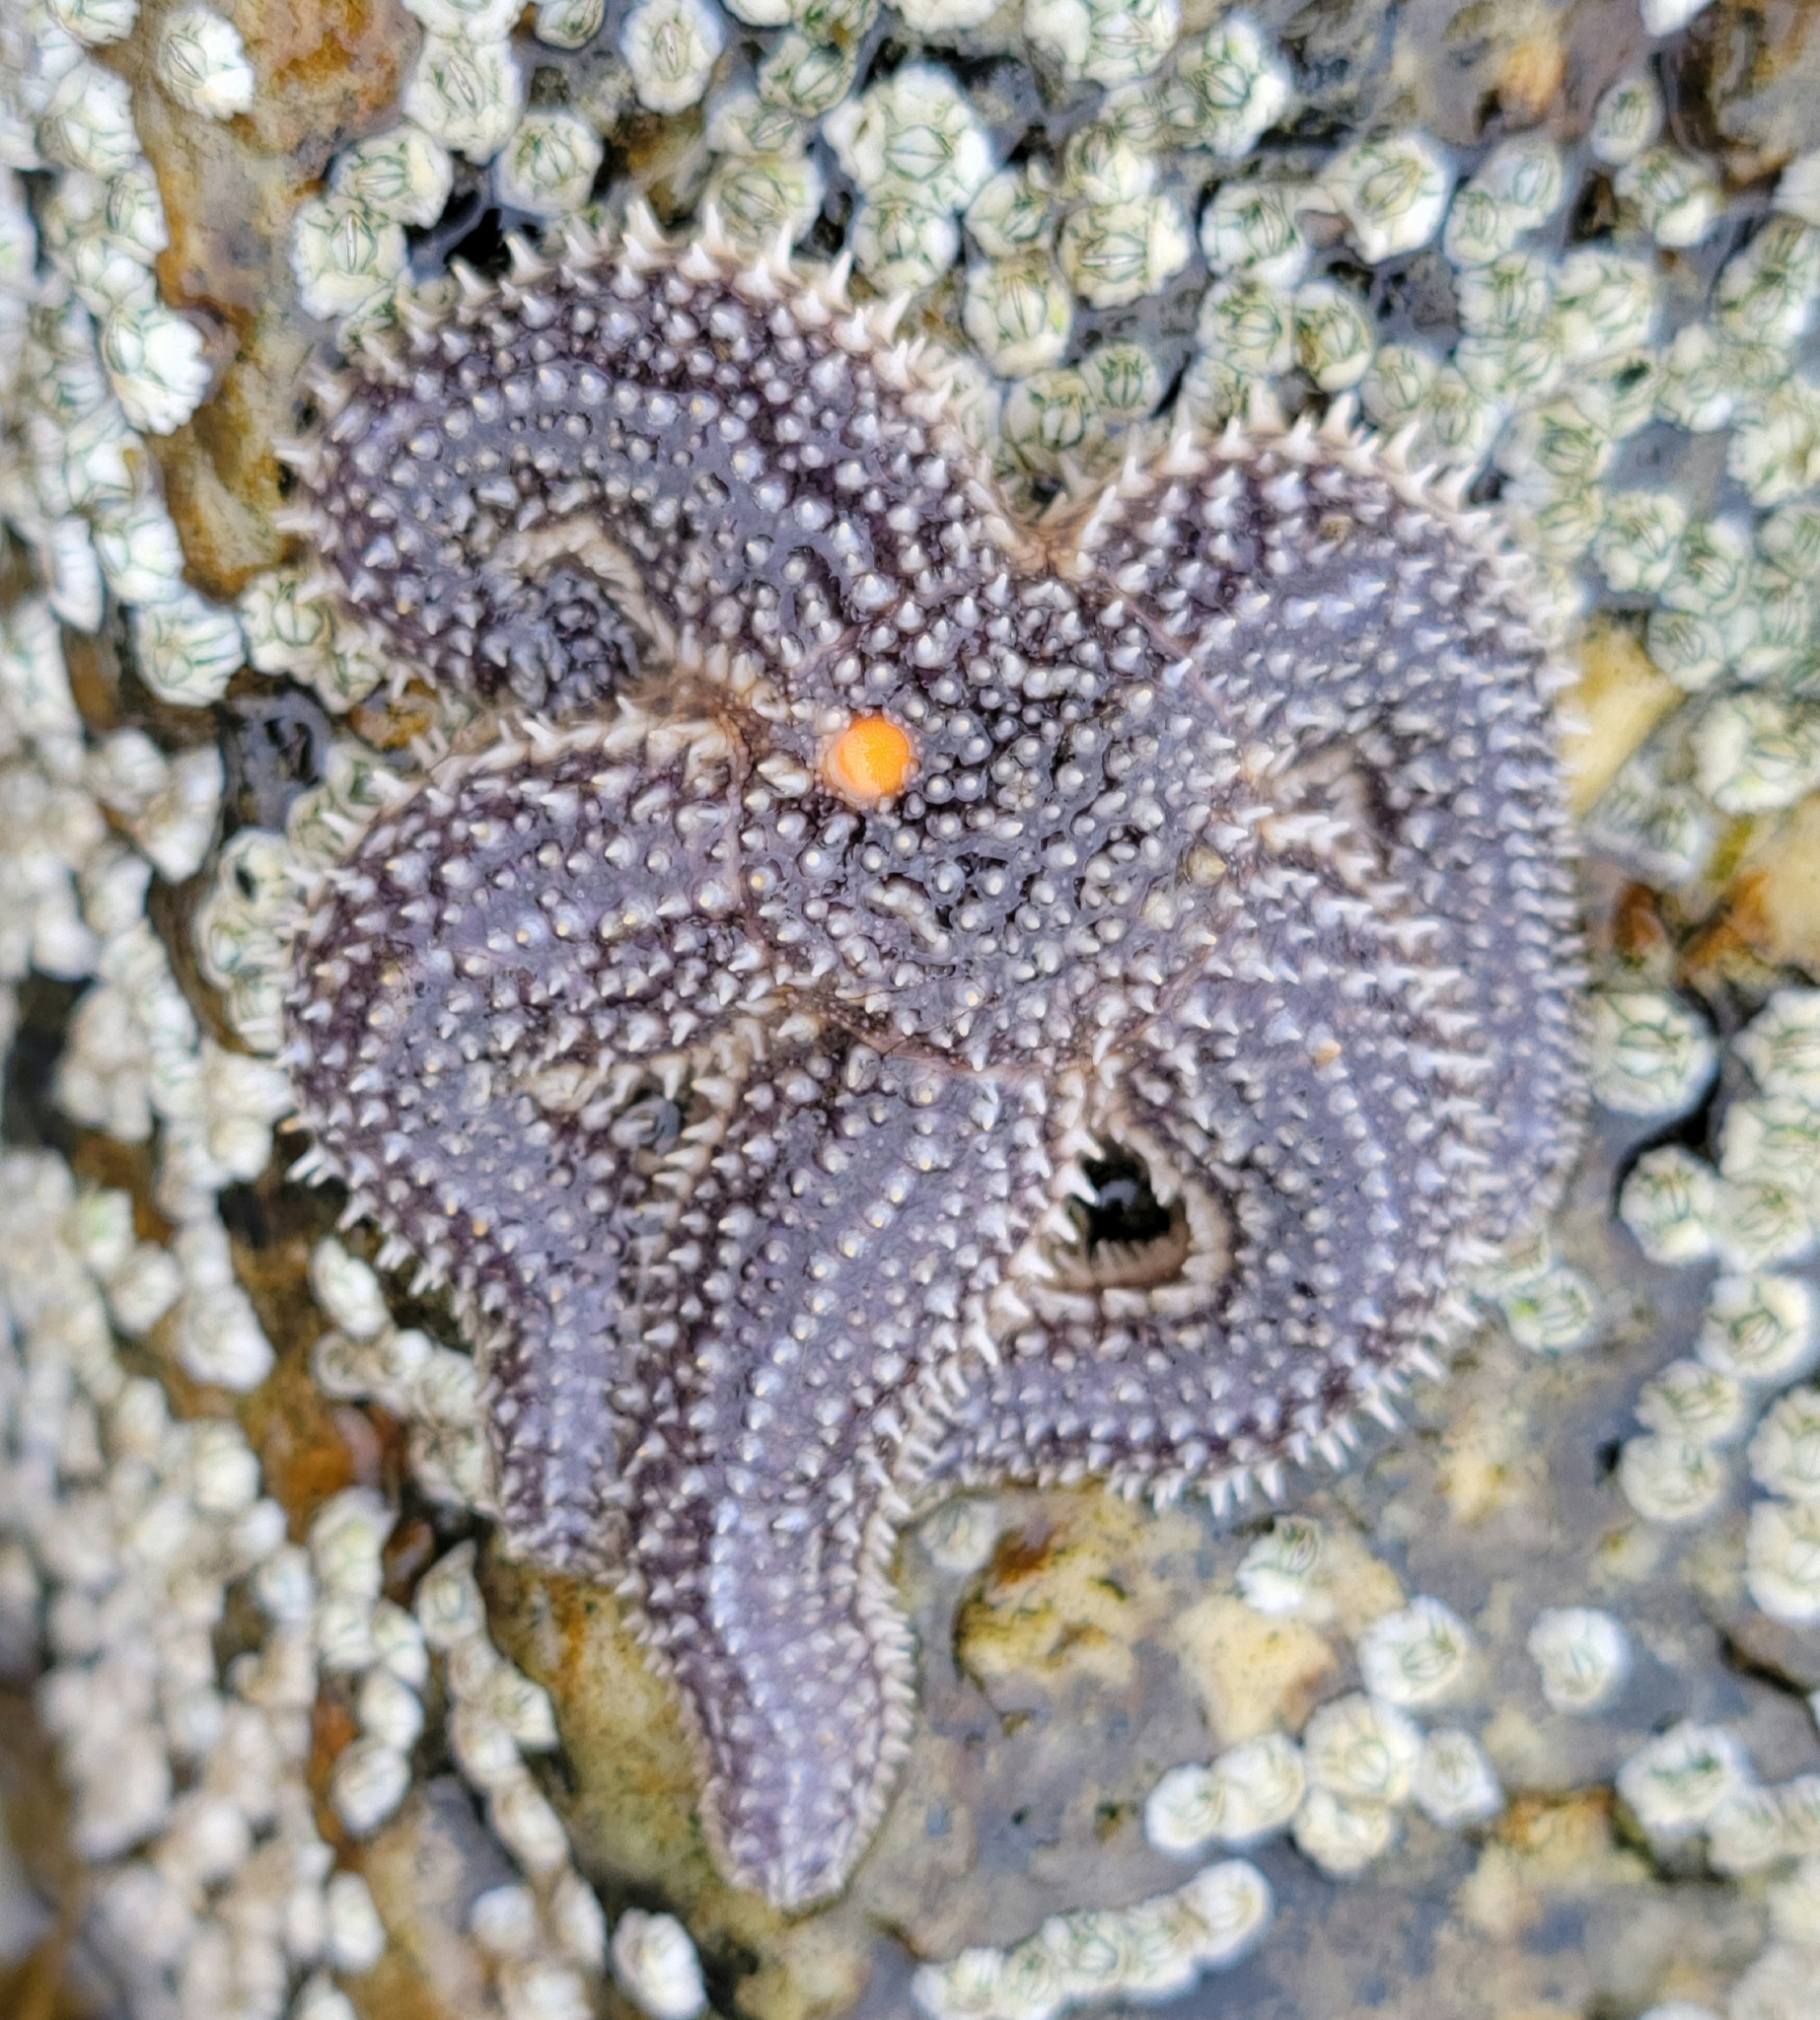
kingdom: Animalia
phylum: Echinodermata
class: Asteroidea
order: Forcipulatida
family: Asteriidae
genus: Asterias
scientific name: Asterias forbesi
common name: Forbes's sea star
